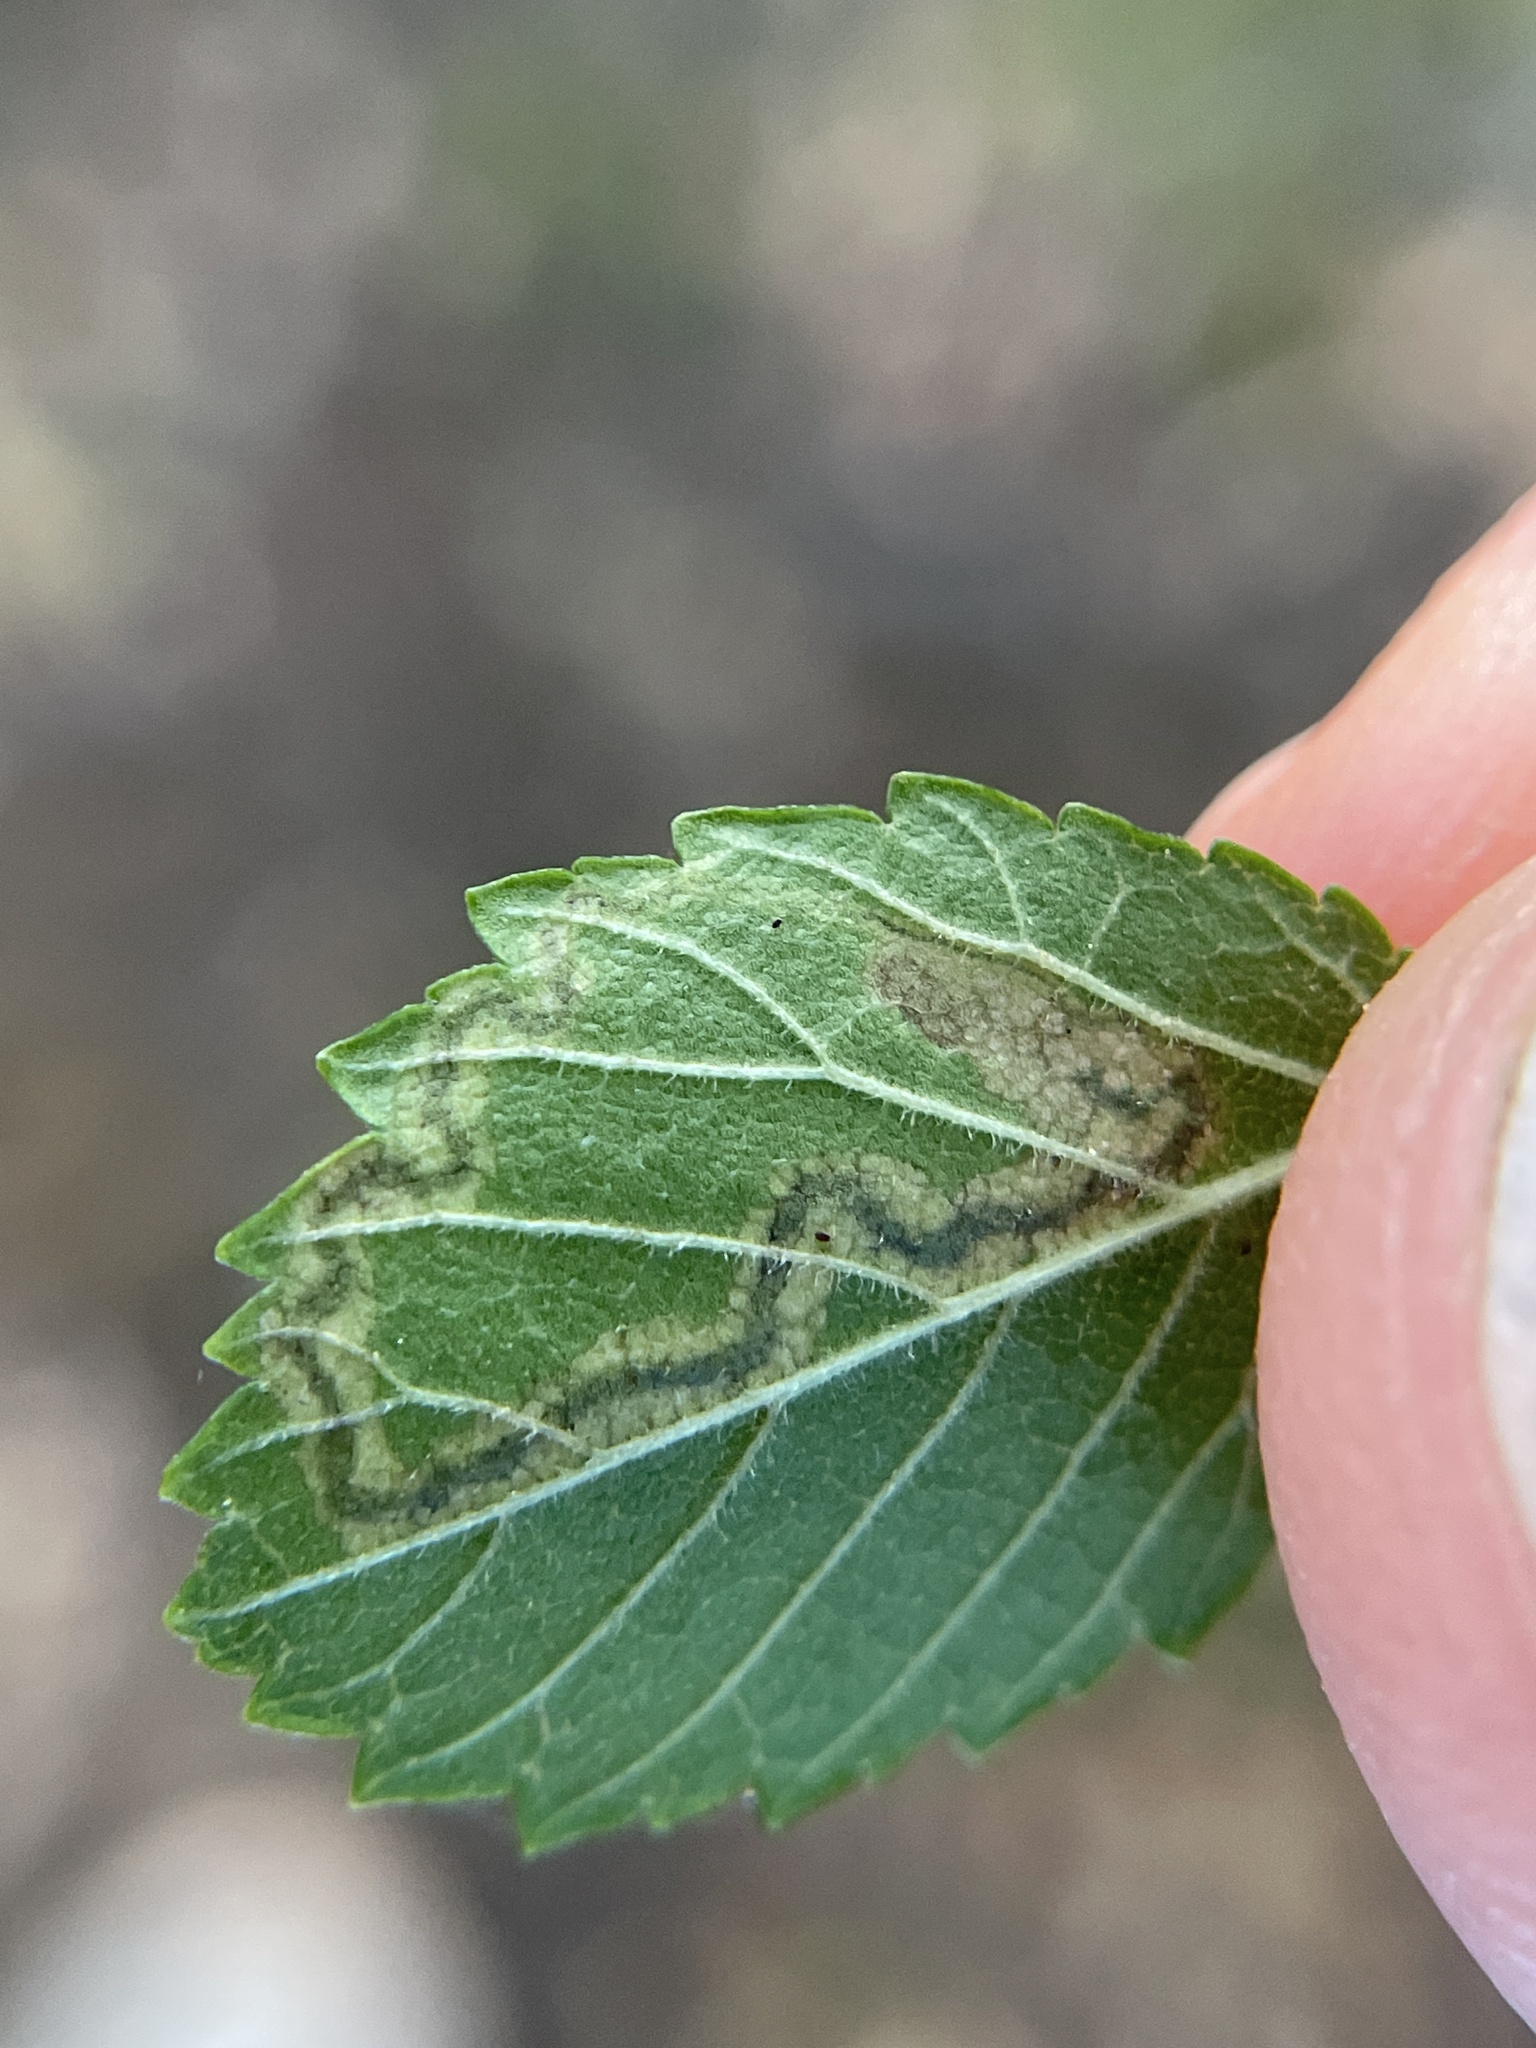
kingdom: Animalia
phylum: Arthropoda
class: Insecta
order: Lepidoptera
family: Nepticulidae
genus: Stigmella
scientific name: Stigmella apicialbella
